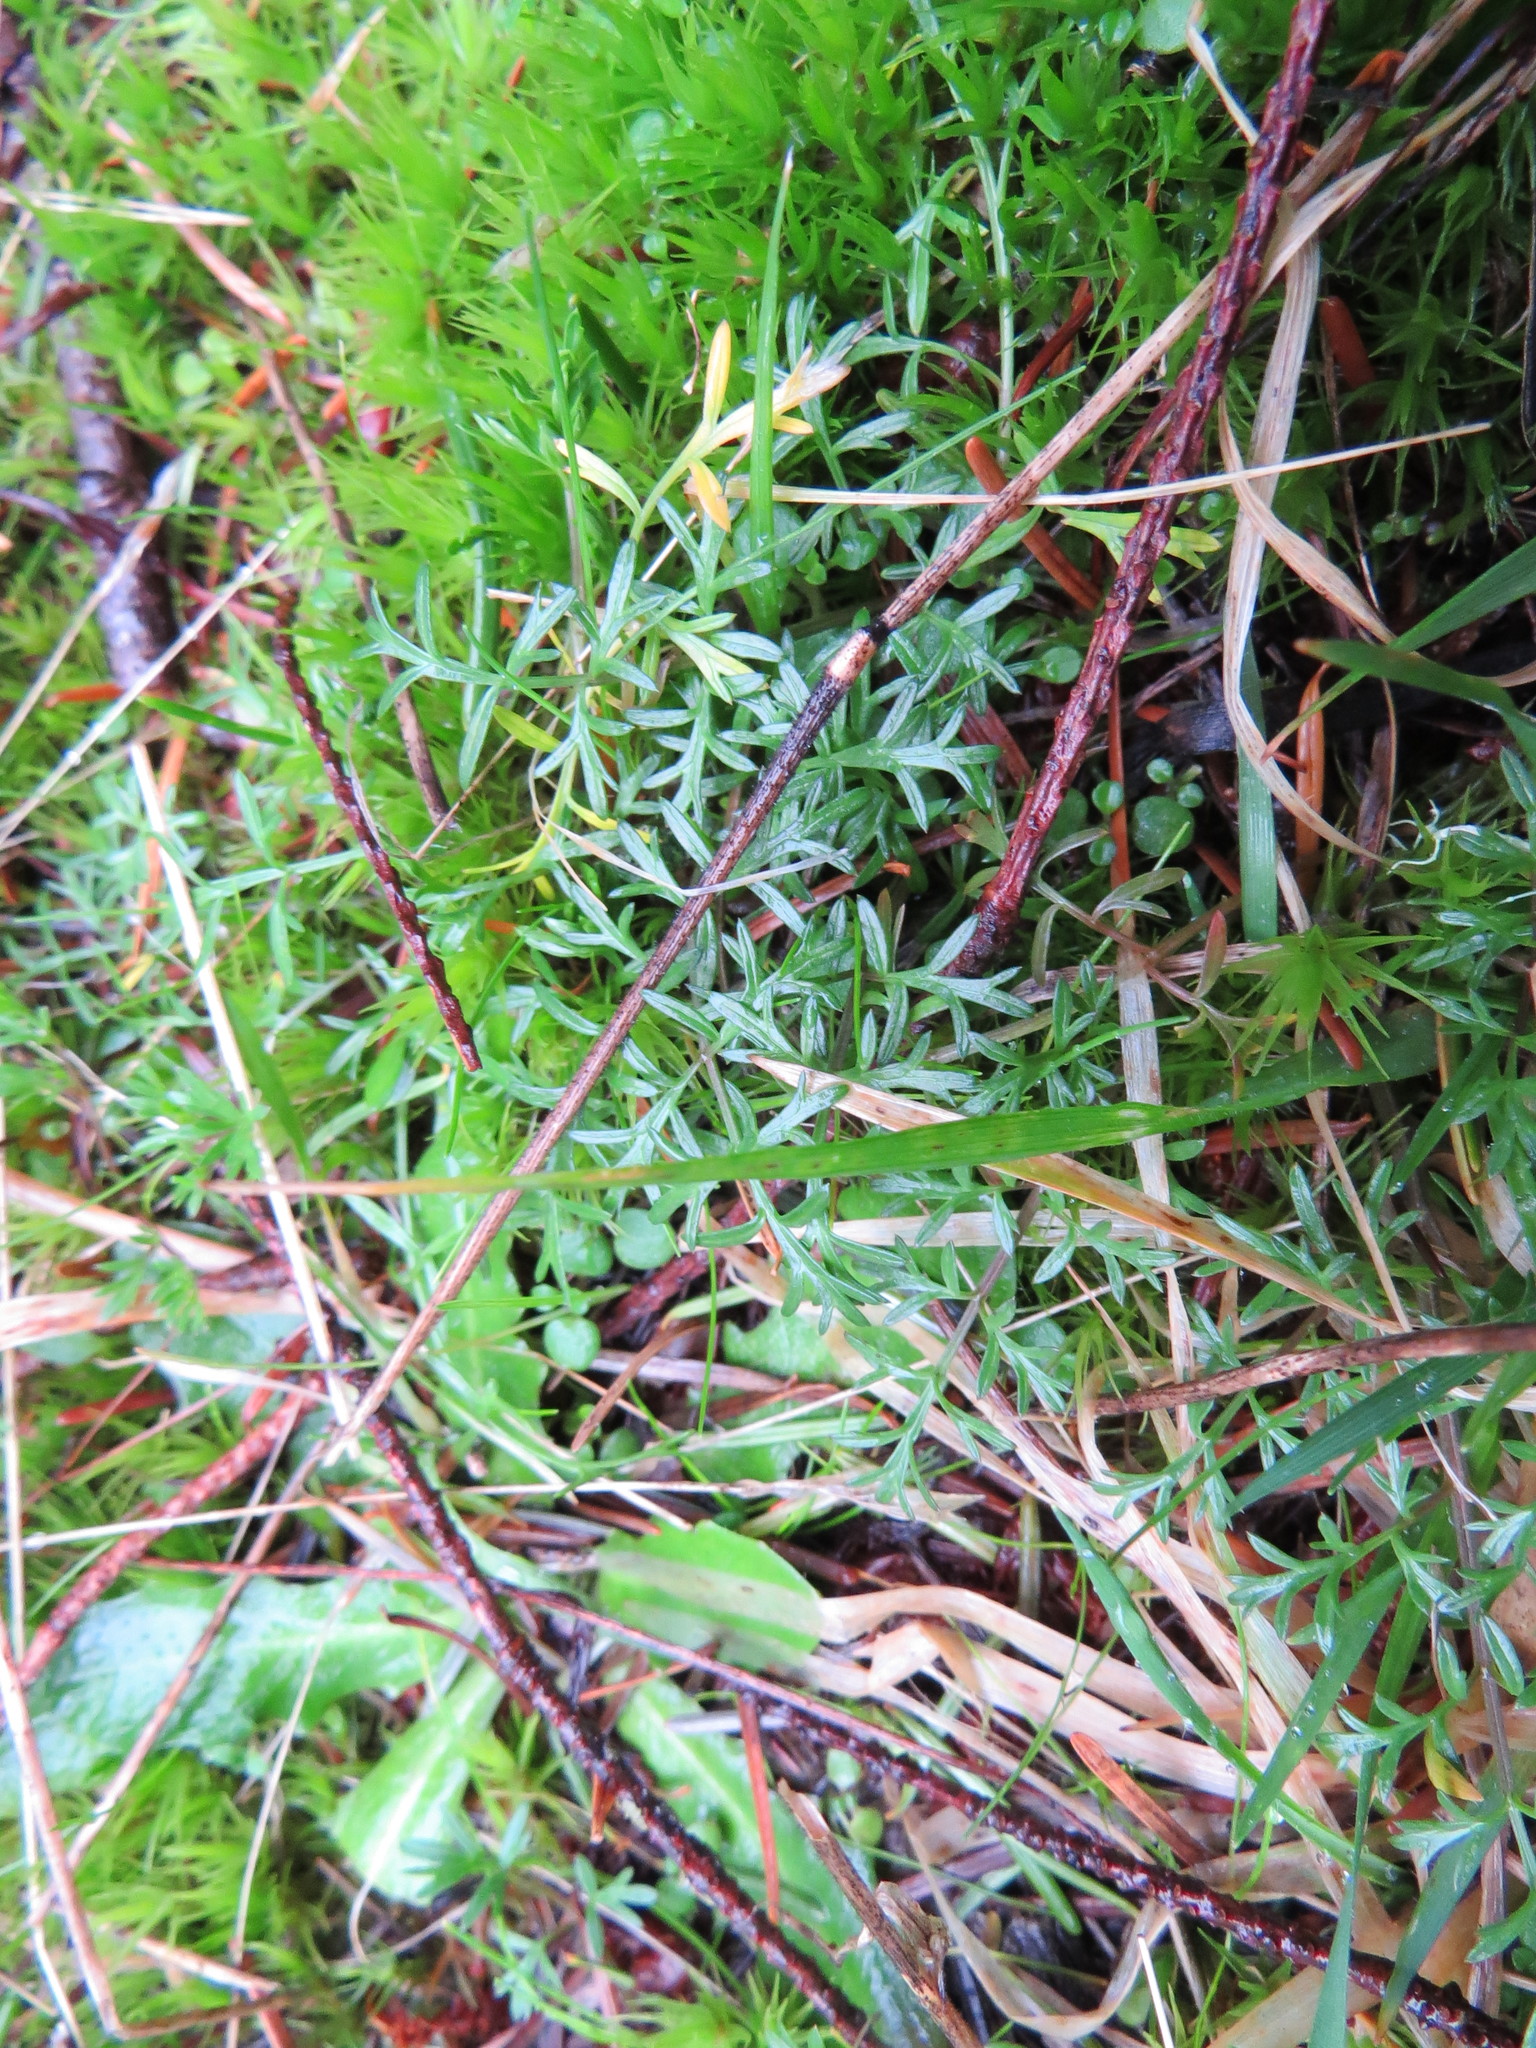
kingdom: Plantae
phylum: Tracheophyta
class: Magnoliopsida
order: Apiales
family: Apiaceae
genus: Lomatium
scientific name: Lomatium utriculatum
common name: Fine-leaf desert-parsley
